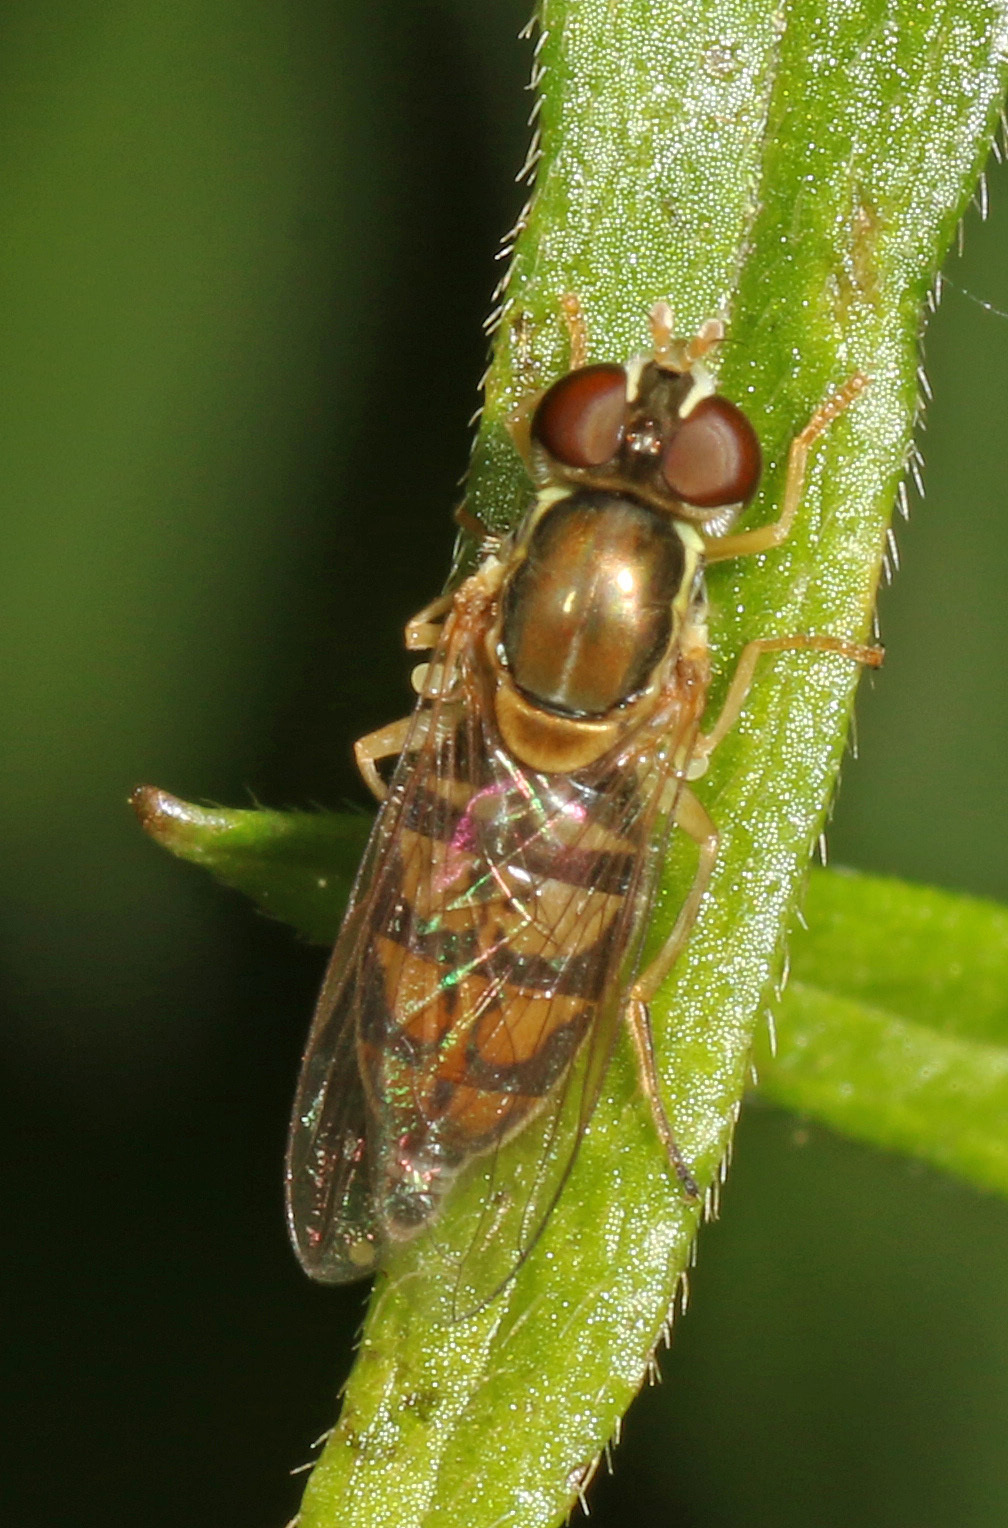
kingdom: Animalia
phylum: Arthropoda
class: Insecta
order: Diptera
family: Syrphidae
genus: Toxomerus
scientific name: Toxomerus marginatus
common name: Syrphid fly
